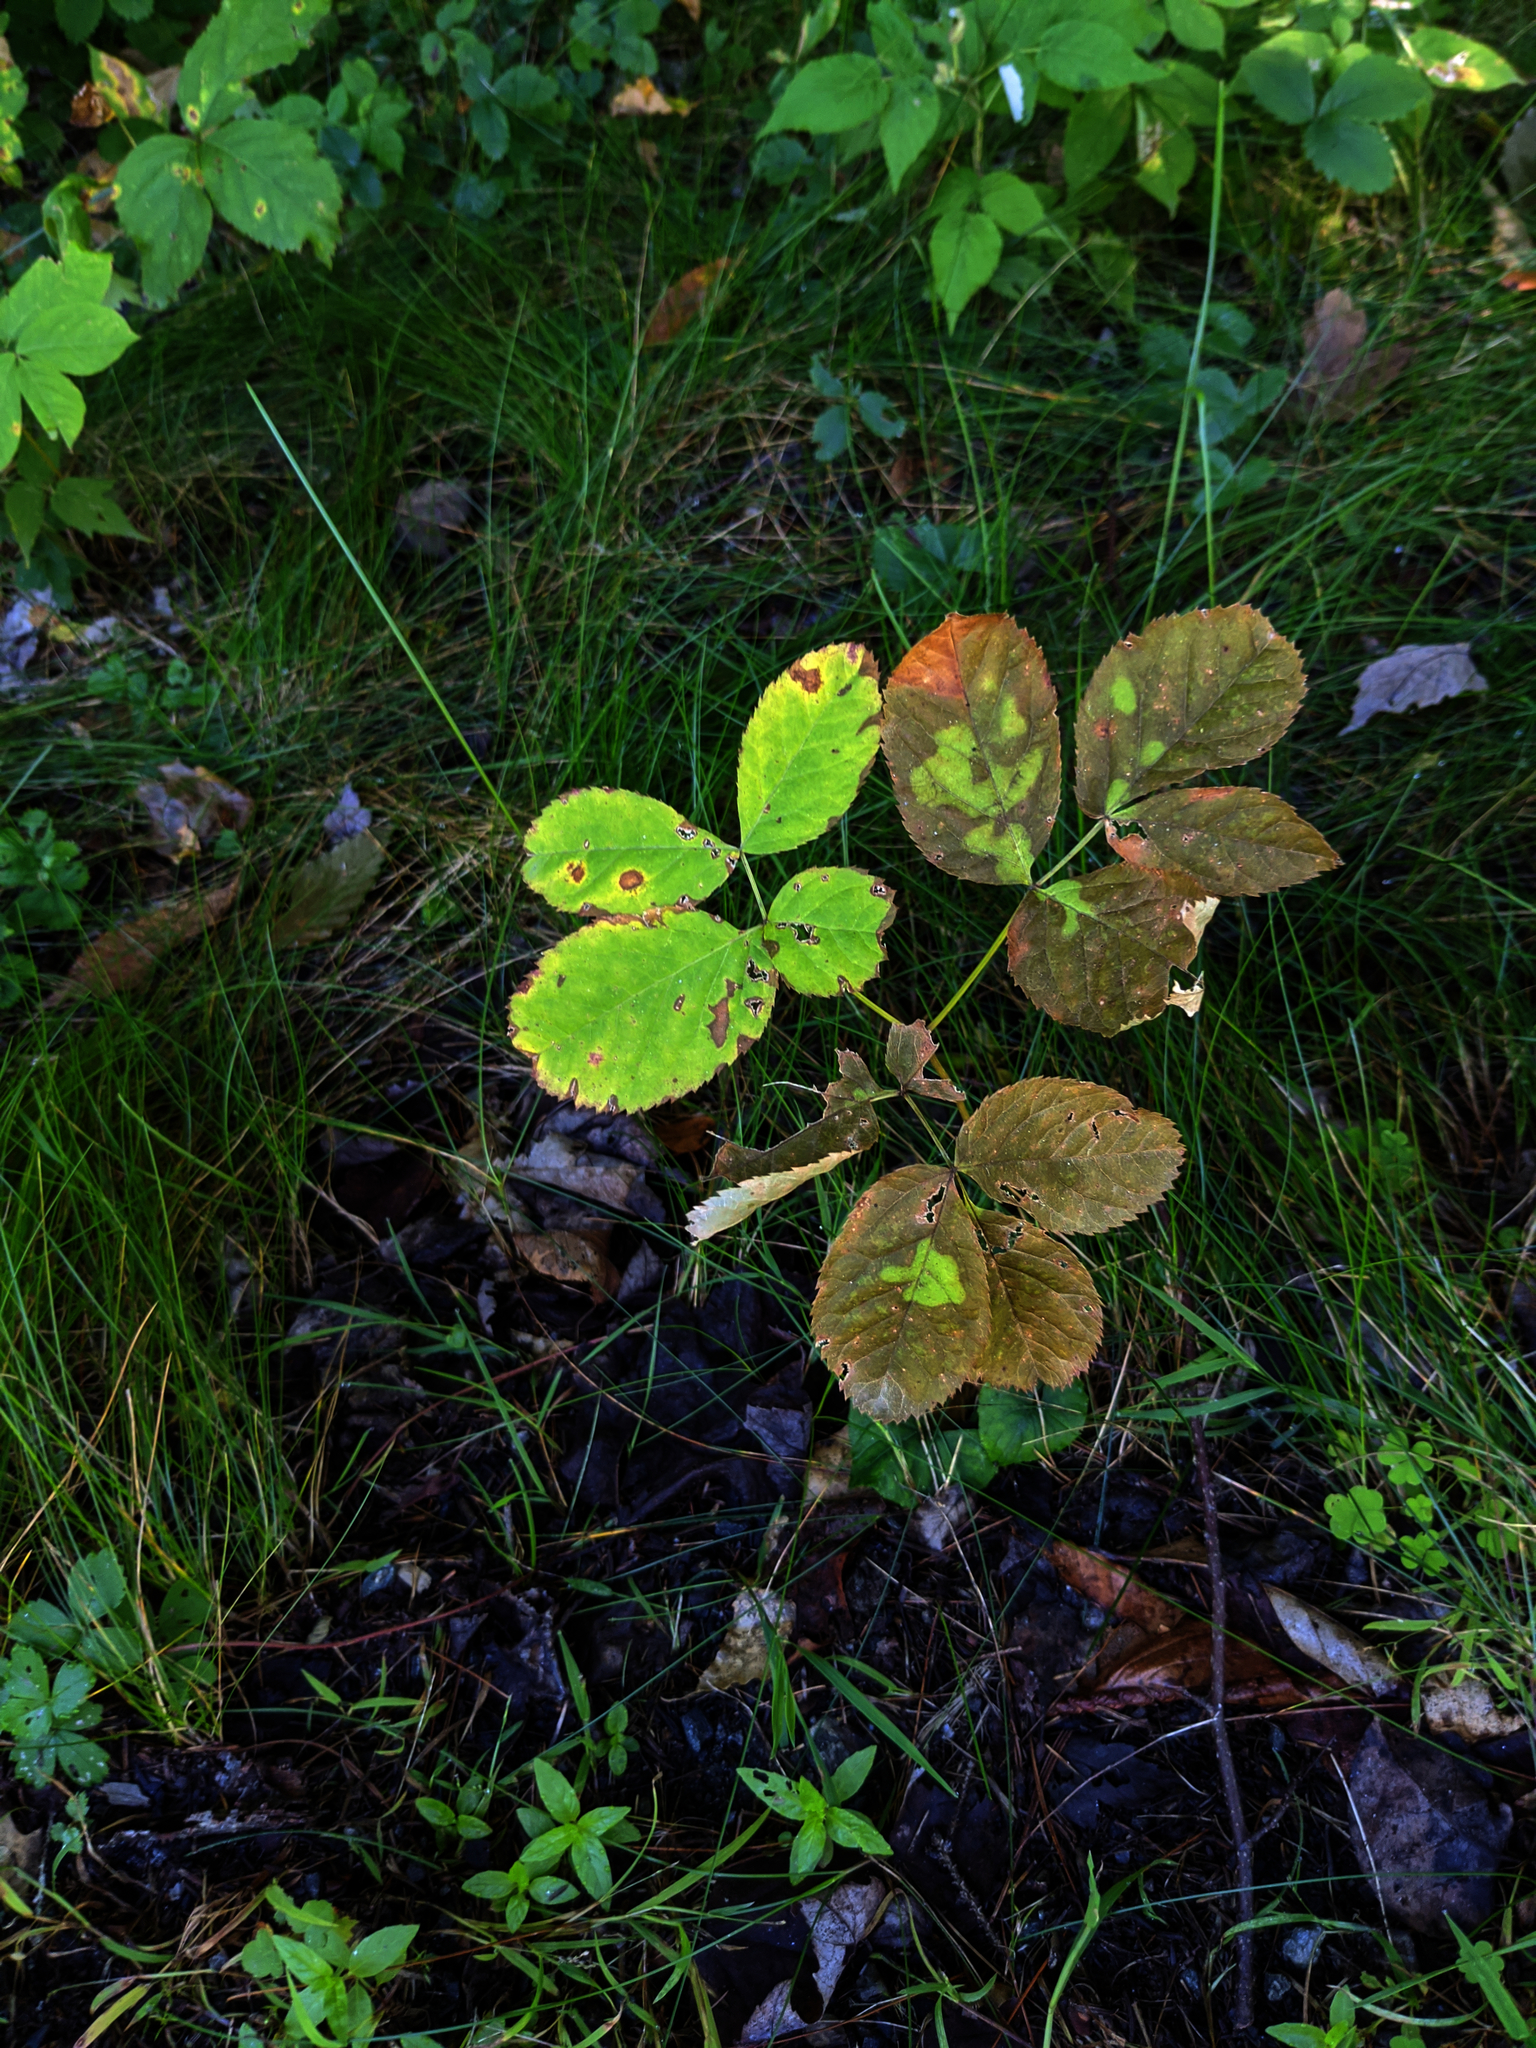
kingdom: Plantae
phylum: Tracheophyta
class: Magnoliopsida
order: Apiales
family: Araliaceae
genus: Aralia
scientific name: Aralia nudicaulis
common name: Wild sarsaparilla
